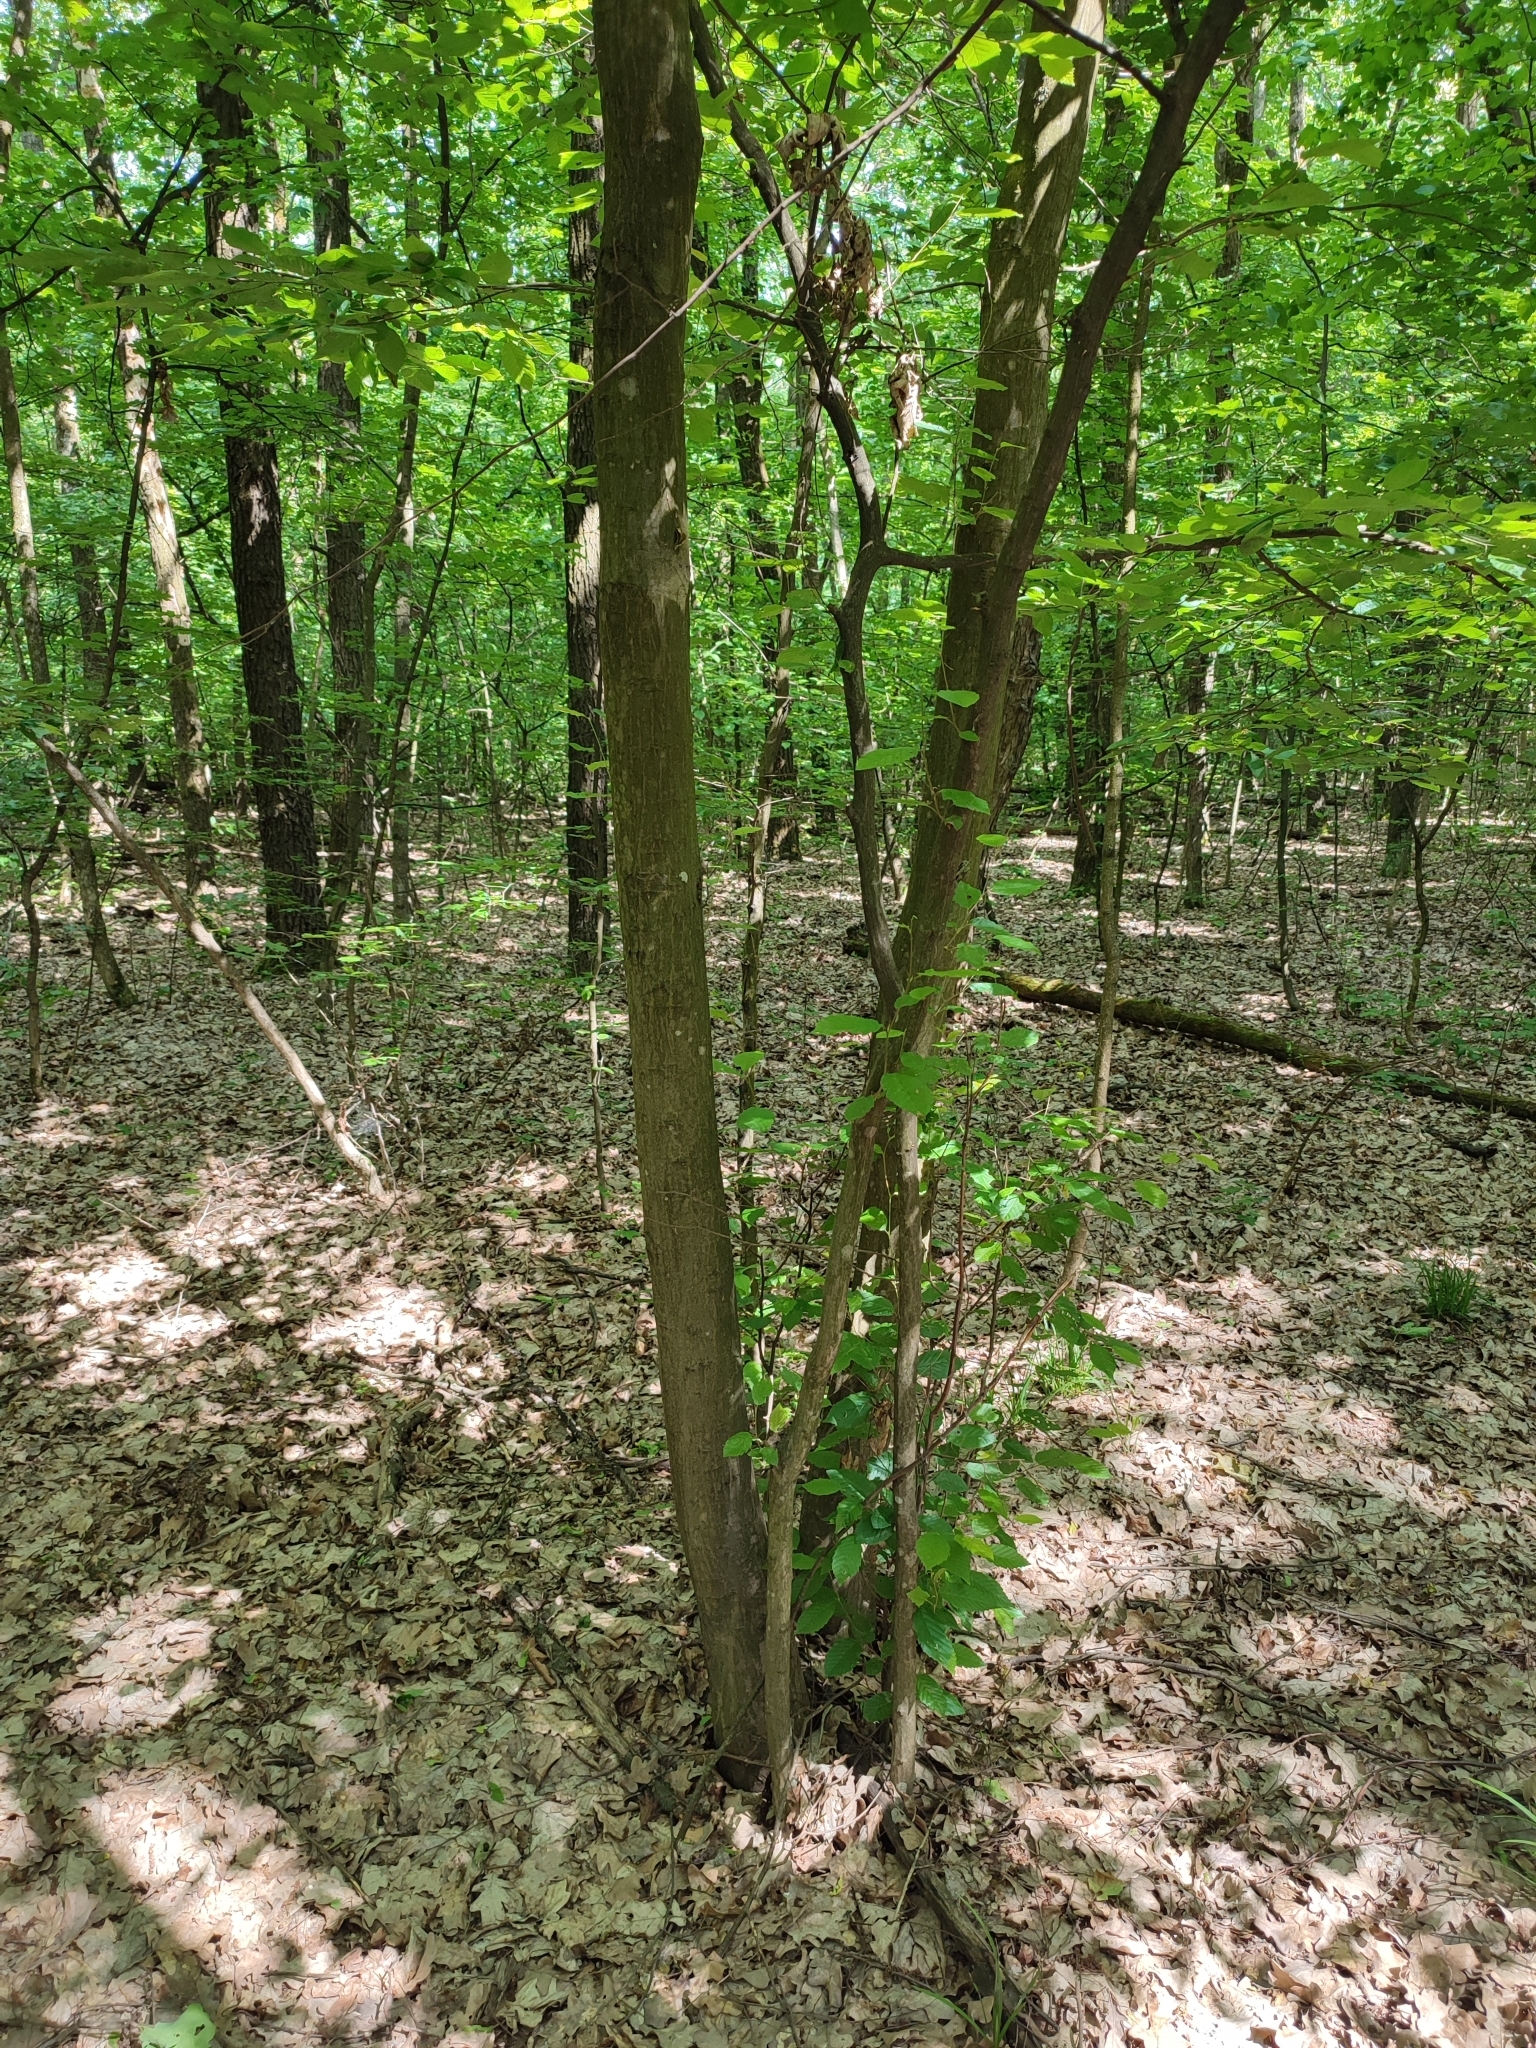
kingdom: Plantae
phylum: Tracheophyta
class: Magnoliopsida
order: Fagales
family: Betulaceae
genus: Carpinus
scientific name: Carpinus betulus
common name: Hornbeam
